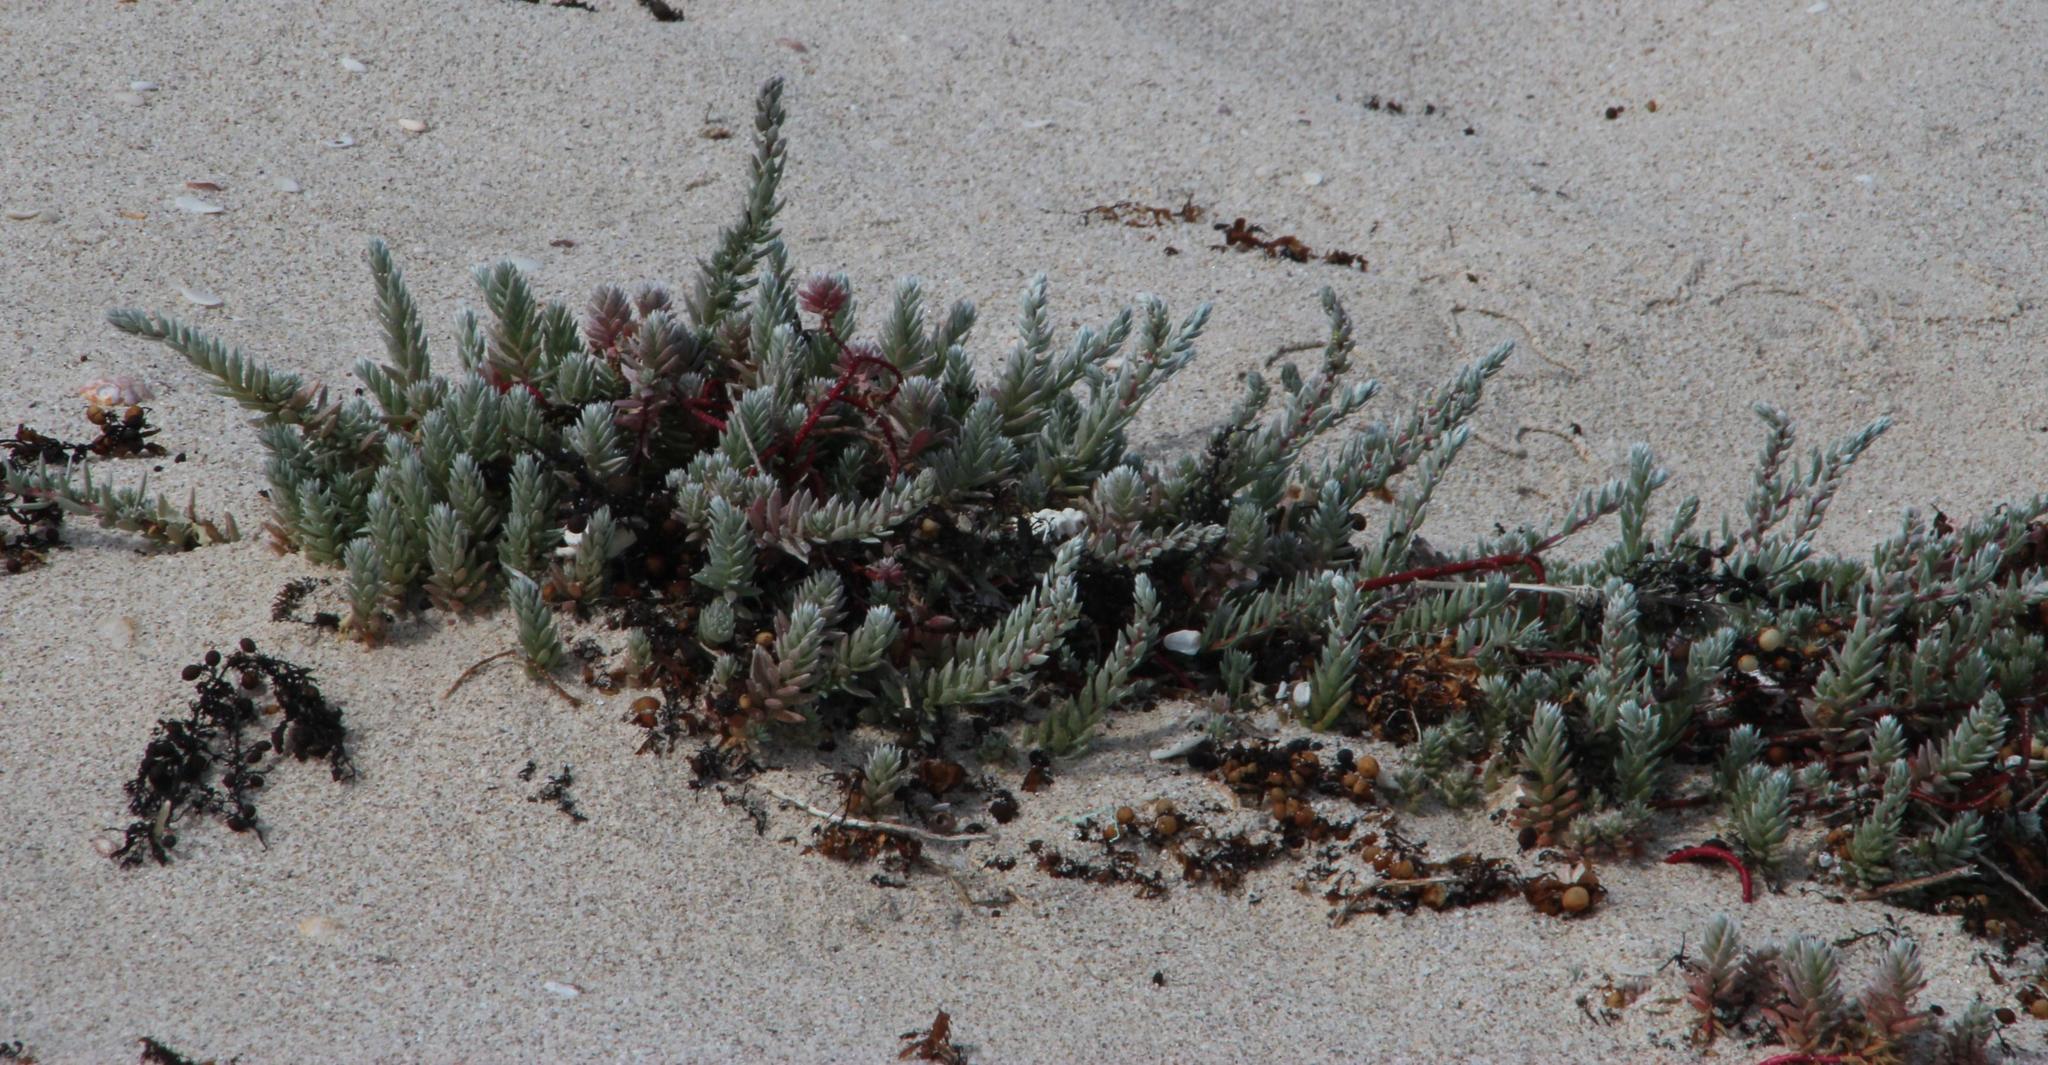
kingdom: Plantae
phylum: Tracheophyta
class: Magnoliopsida
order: Caryophyllales
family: Amaranthaceae
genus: Chenolea
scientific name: Chenolea diffusa
